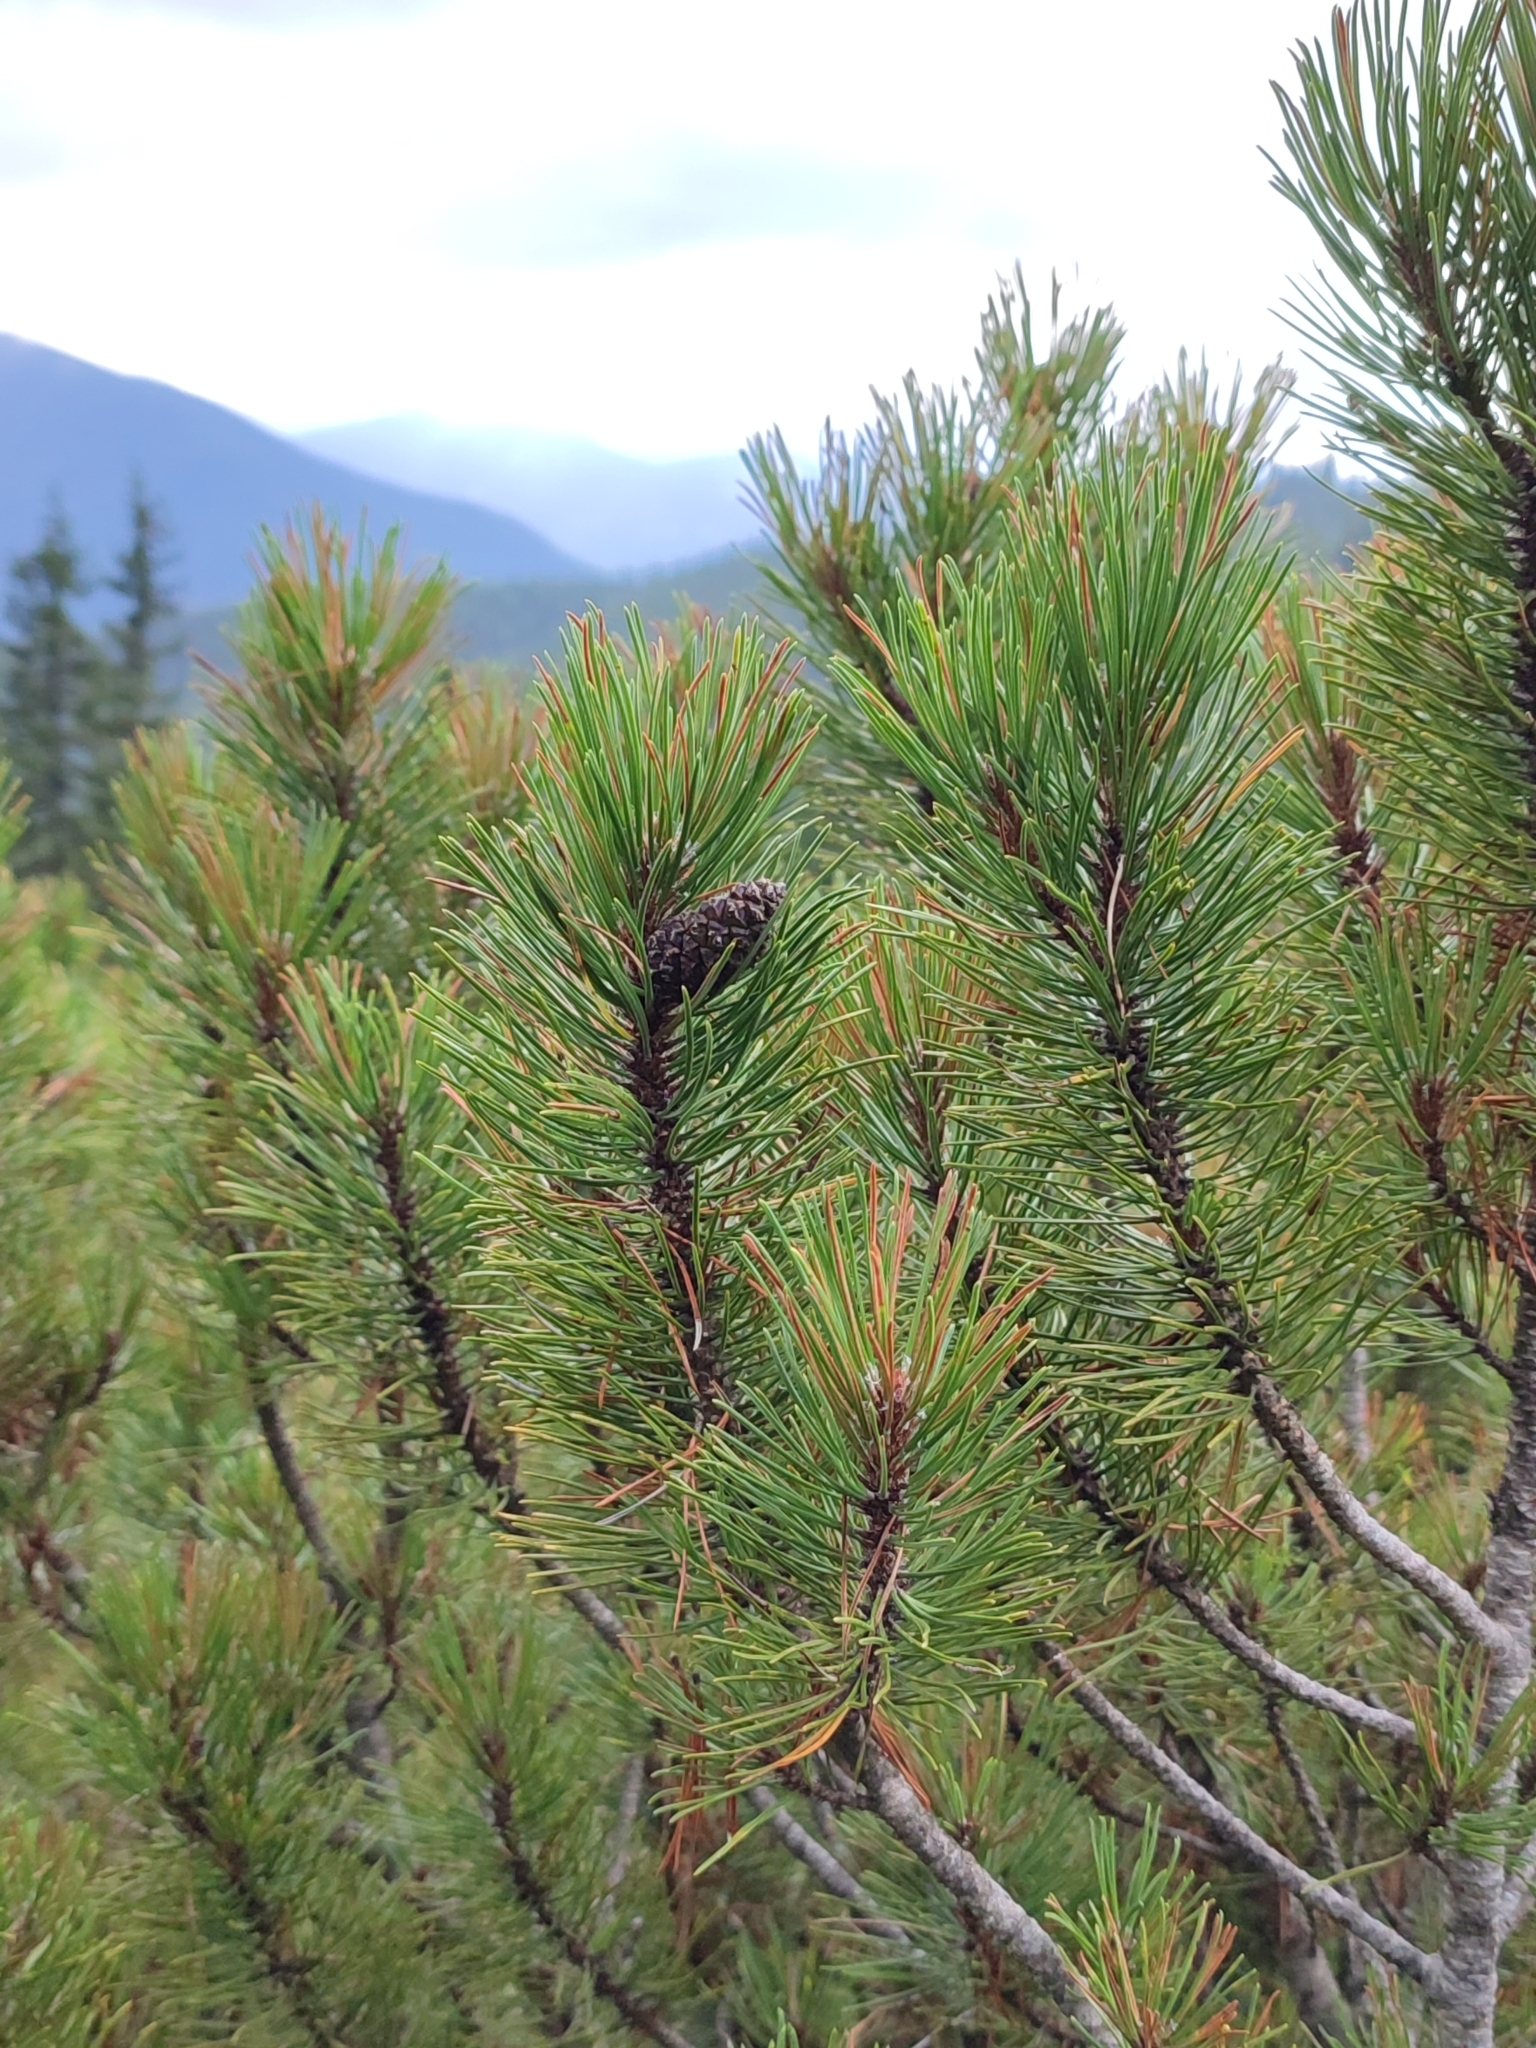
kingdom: Plantae
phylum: Tracheophyta
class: Pinopsida
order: Pinales
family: Pinaceae
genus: Pinus
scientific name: Pinus mugo
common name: Mugo pine
